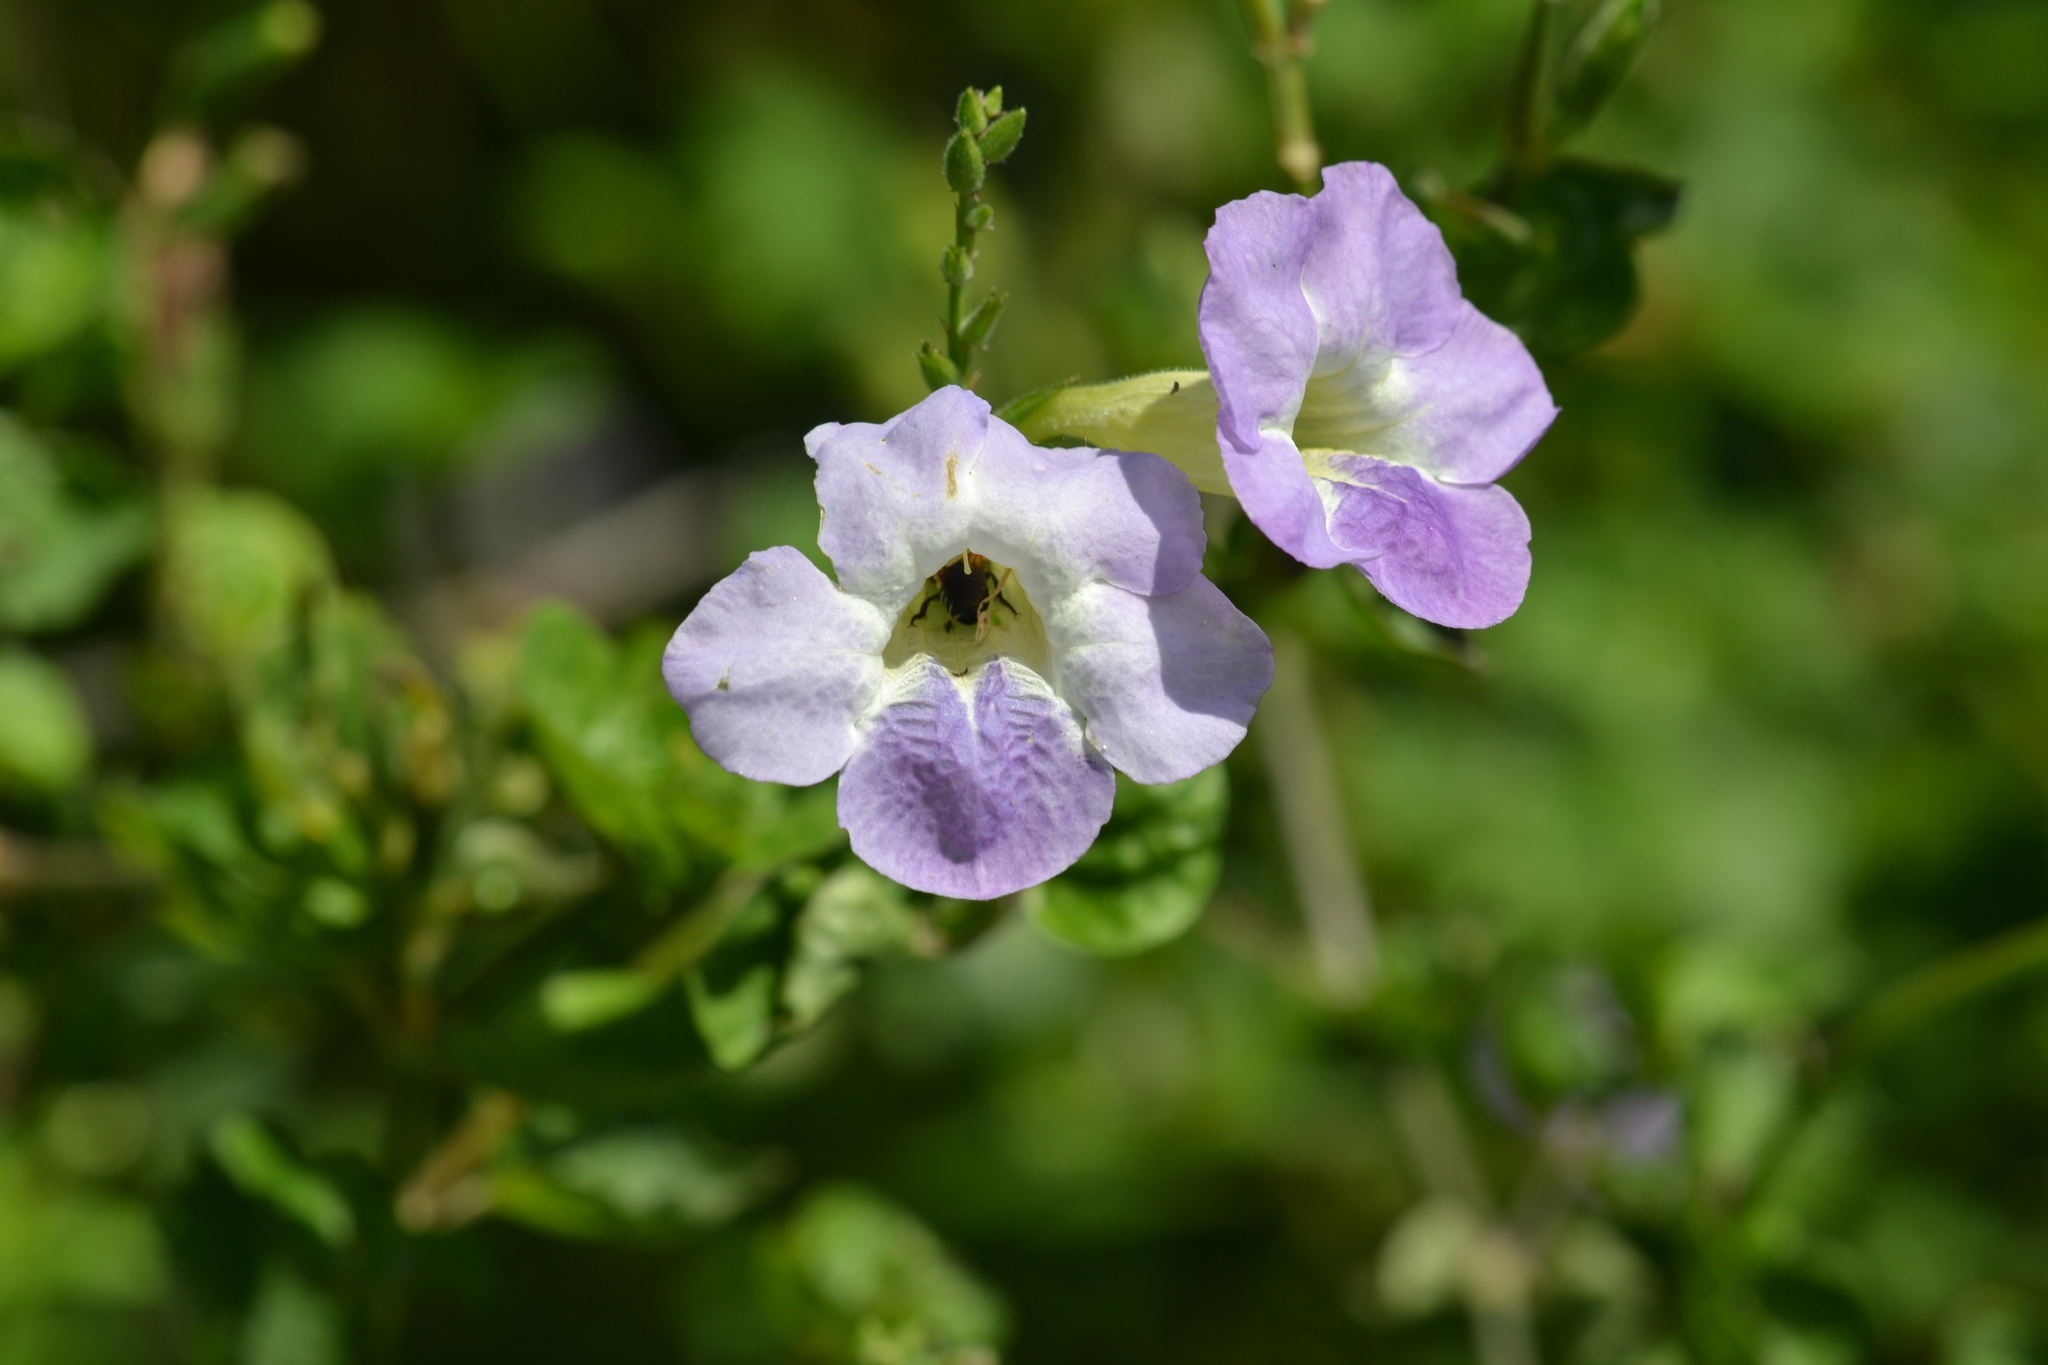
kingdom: Animalia
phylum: Arthropoda
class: Insecta
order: Hymenoptera
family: Megachilidae
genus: Megachile
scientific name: Megachile umbripennis
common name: Shadow-winged resin bee
